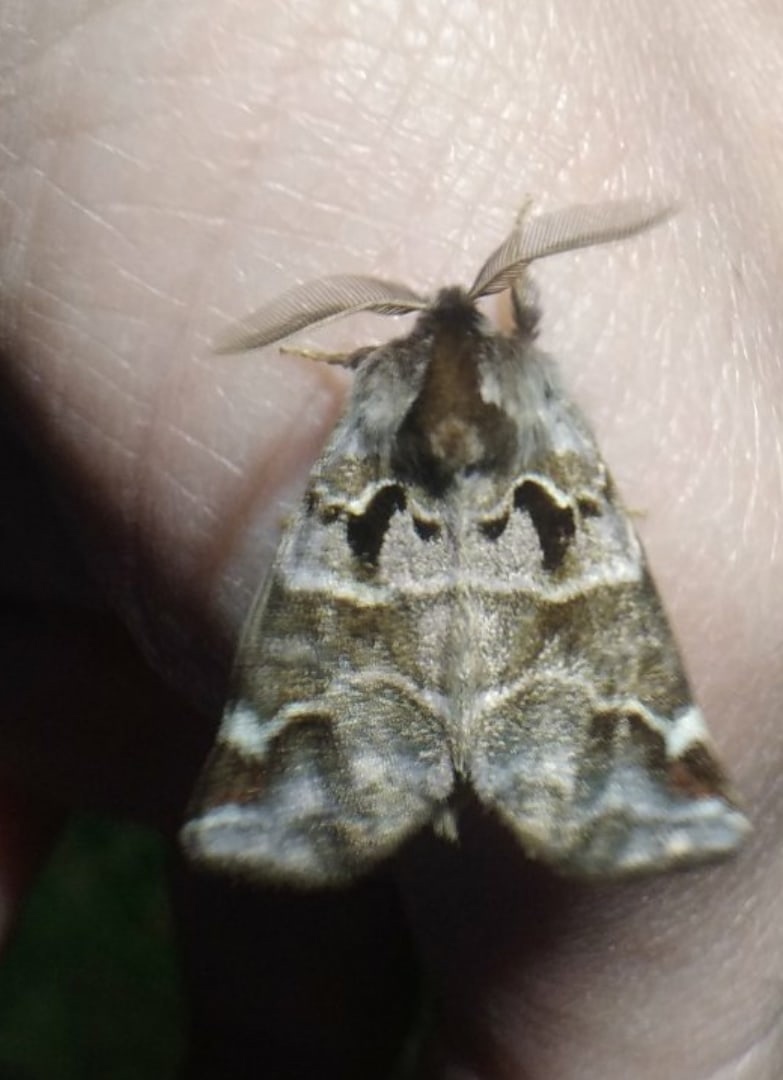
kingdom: Animalia
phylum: Arthropoda
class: Insecta
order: Lepidoptera
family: Notodontidae
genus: Pygaera
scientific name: Pygaera timon
